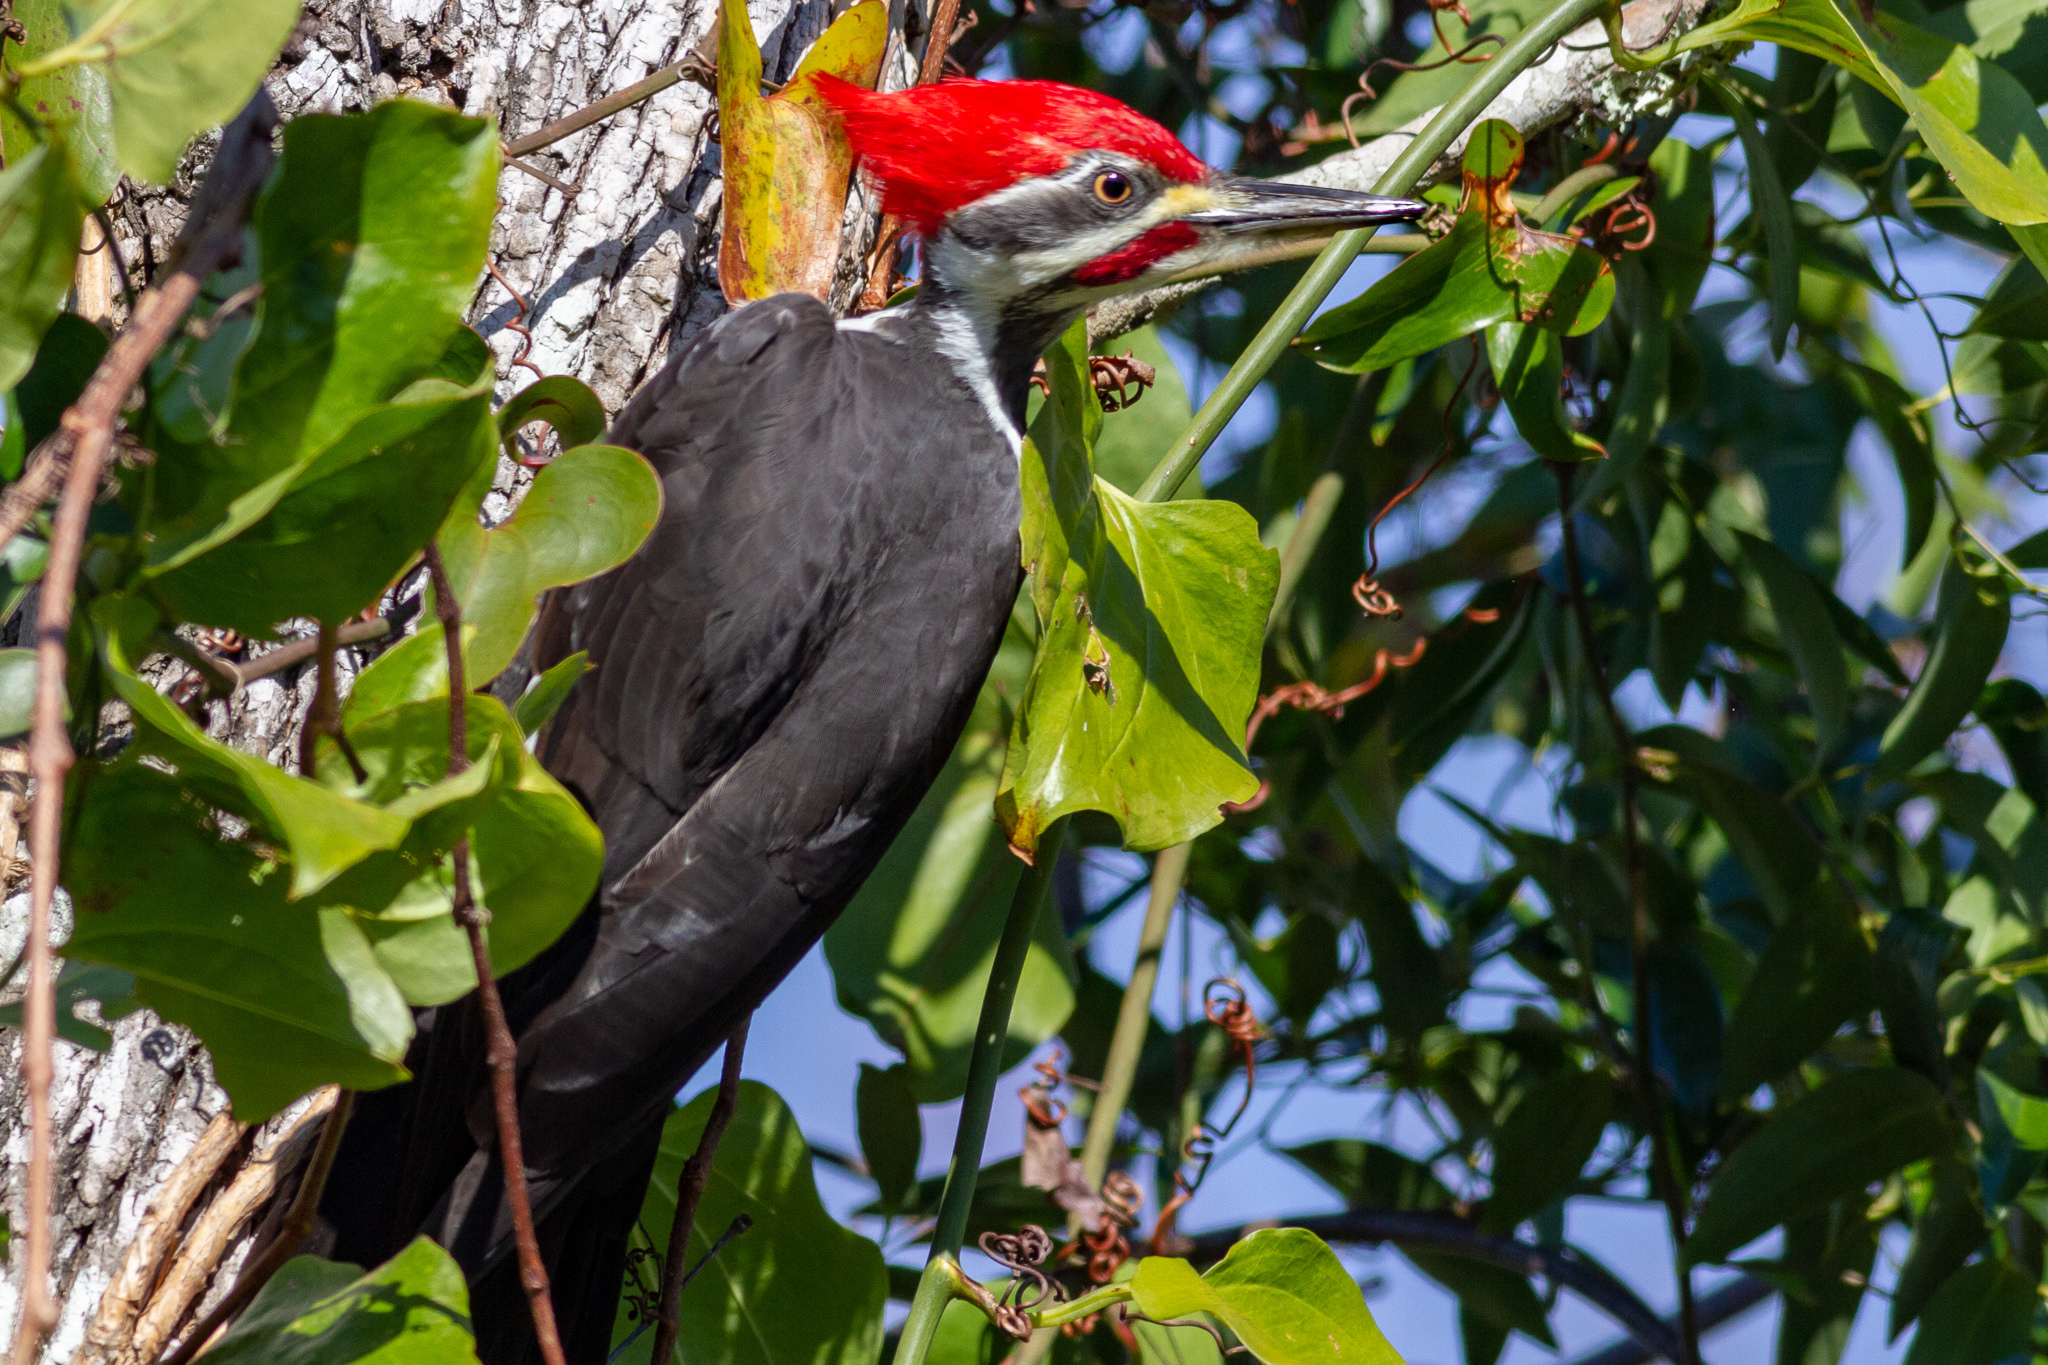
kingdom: Animalia
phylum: Chordata
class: Aves
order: Piciformes
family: Picidae
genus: Dryocopus
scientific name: Dryocopus pileatus
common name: Pileated woodpecker
